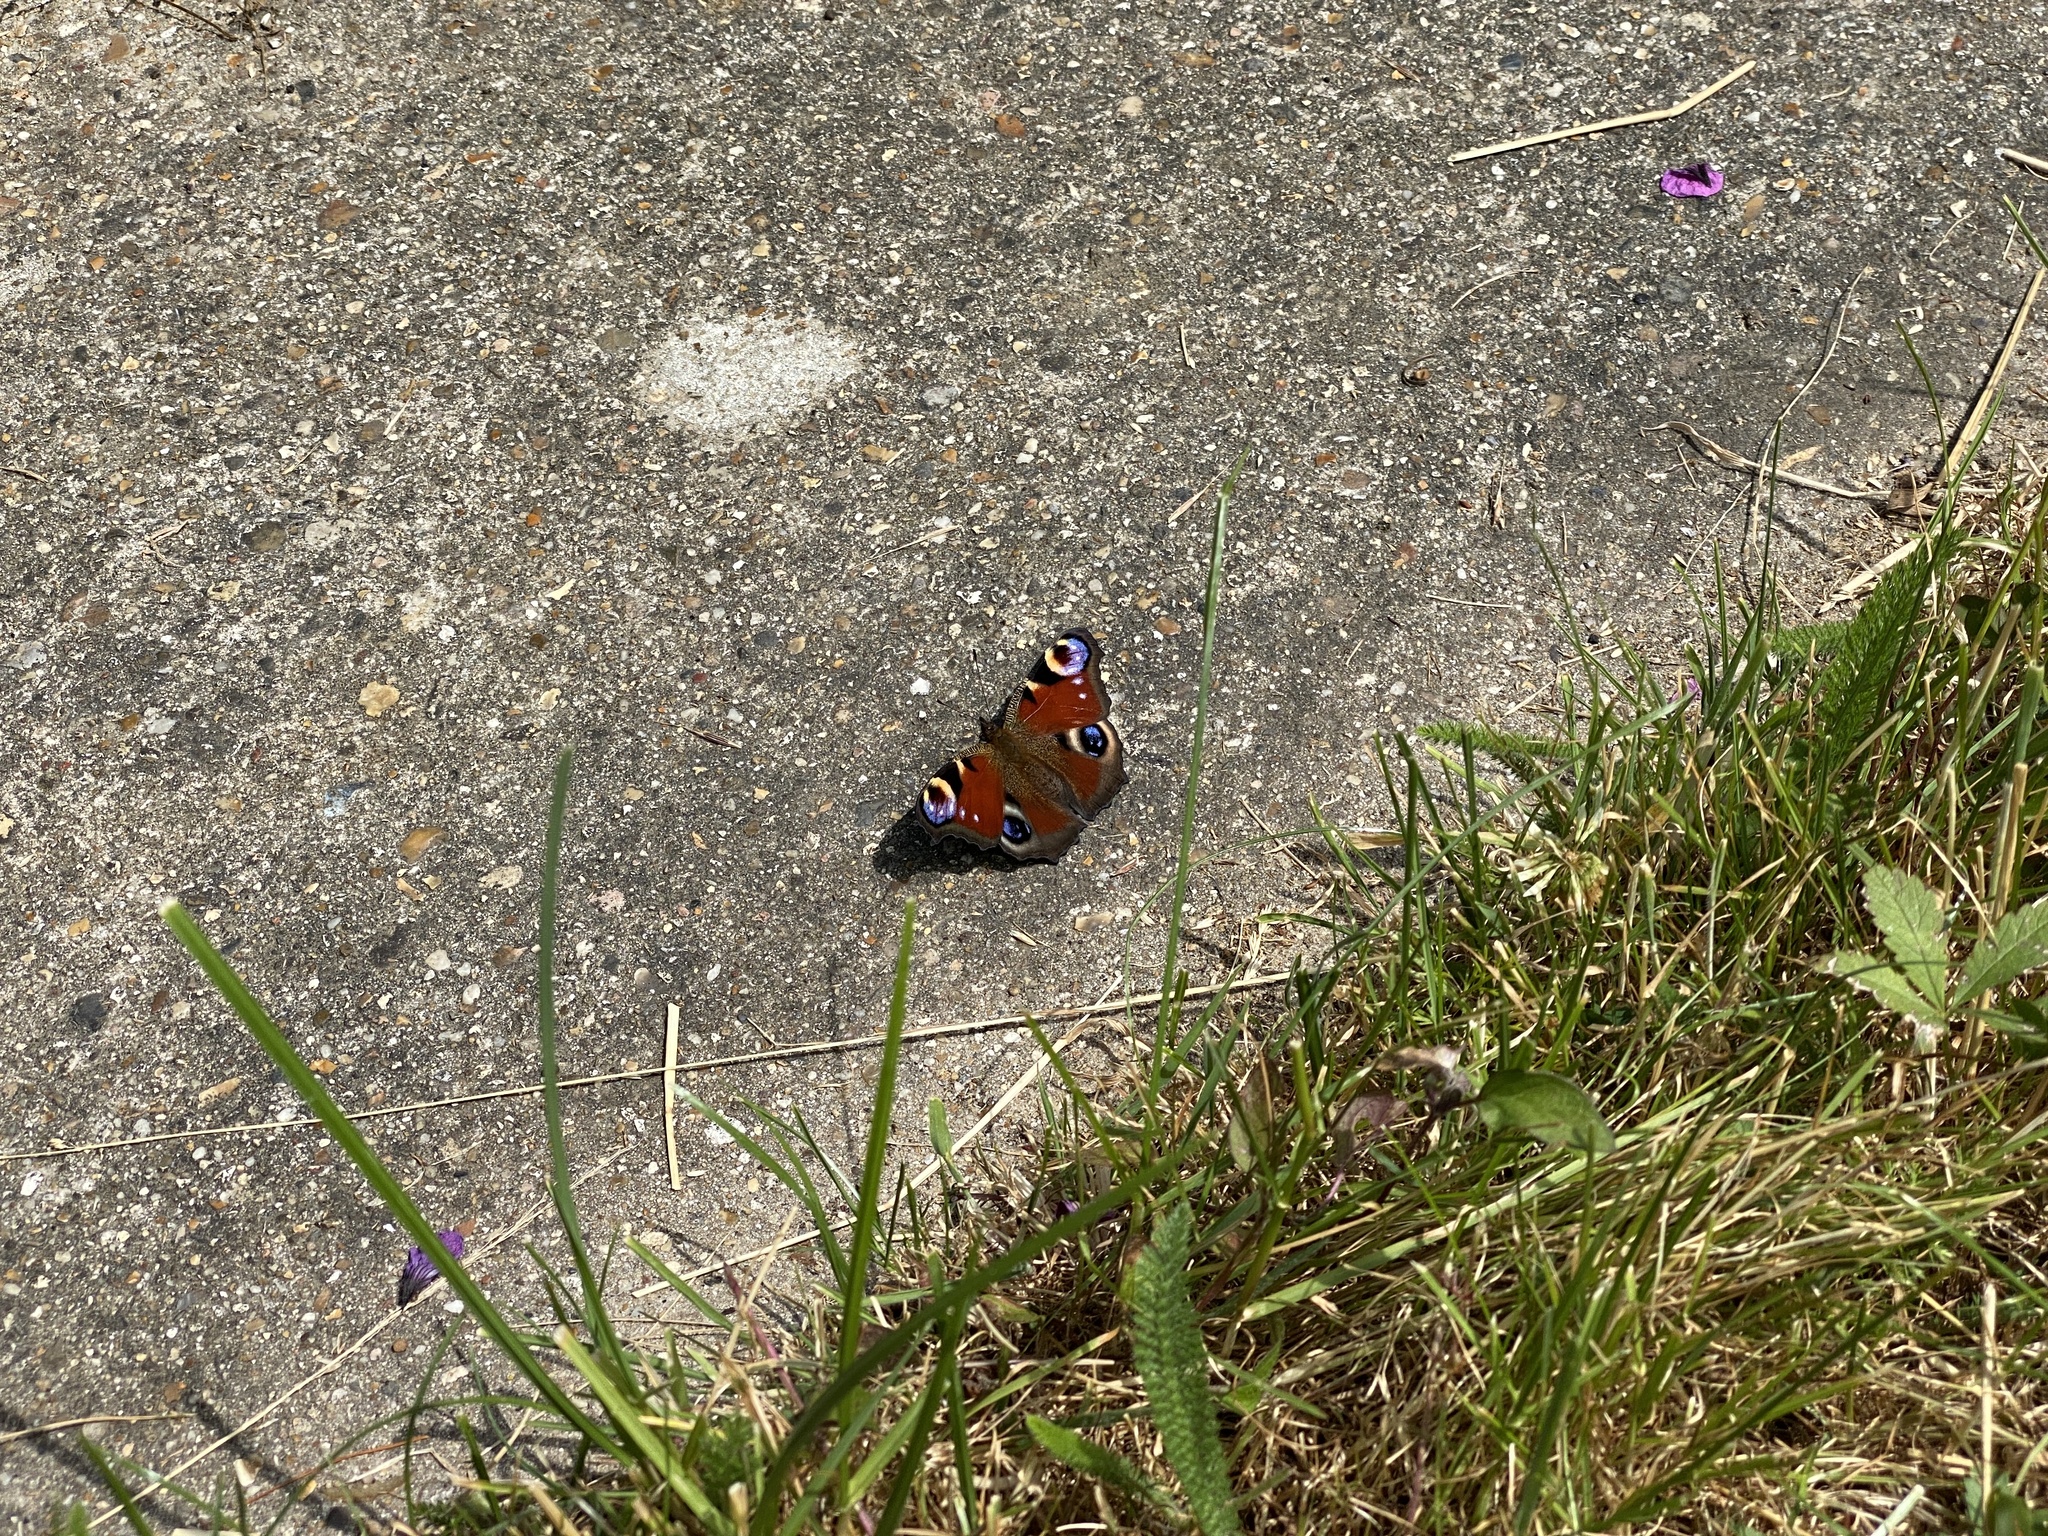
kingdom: Animalia
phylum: Arthropoda
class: Insecta
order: Lepidoptera
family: Nymphalidae
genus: Aglais
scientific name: Aglais io
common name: Peacock
